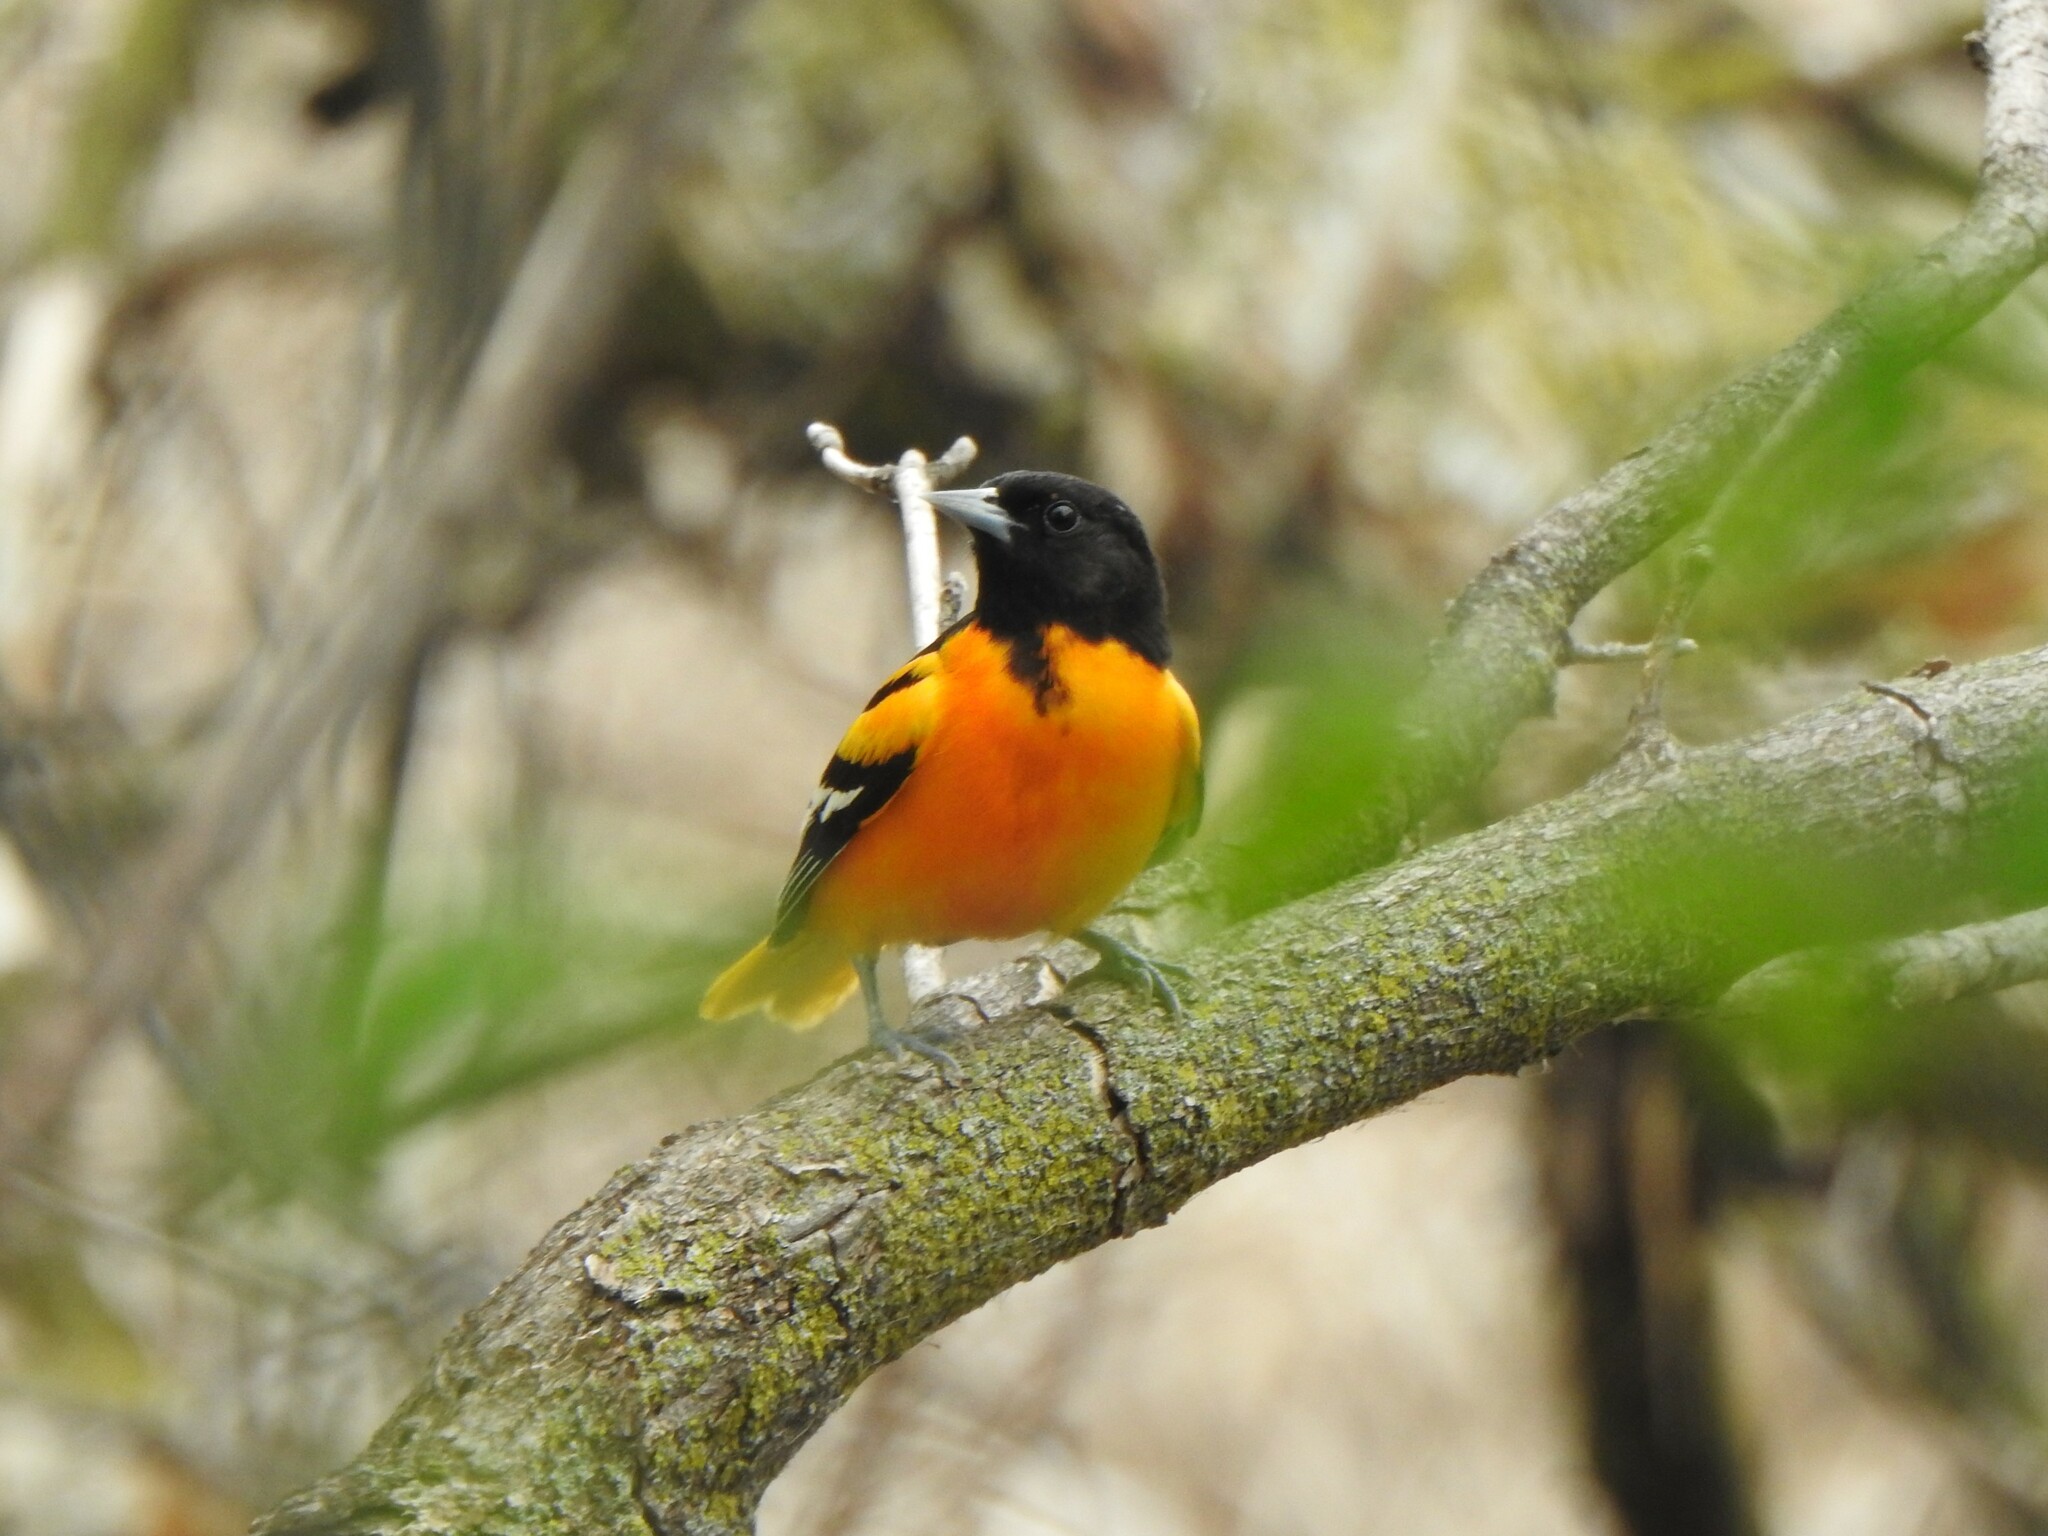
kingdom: Animalia
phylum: Chordata
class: Aves
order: Passeriformes
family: Icteridae
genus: Icterus
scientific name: Icterus galbula
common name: Baltimore oriole
